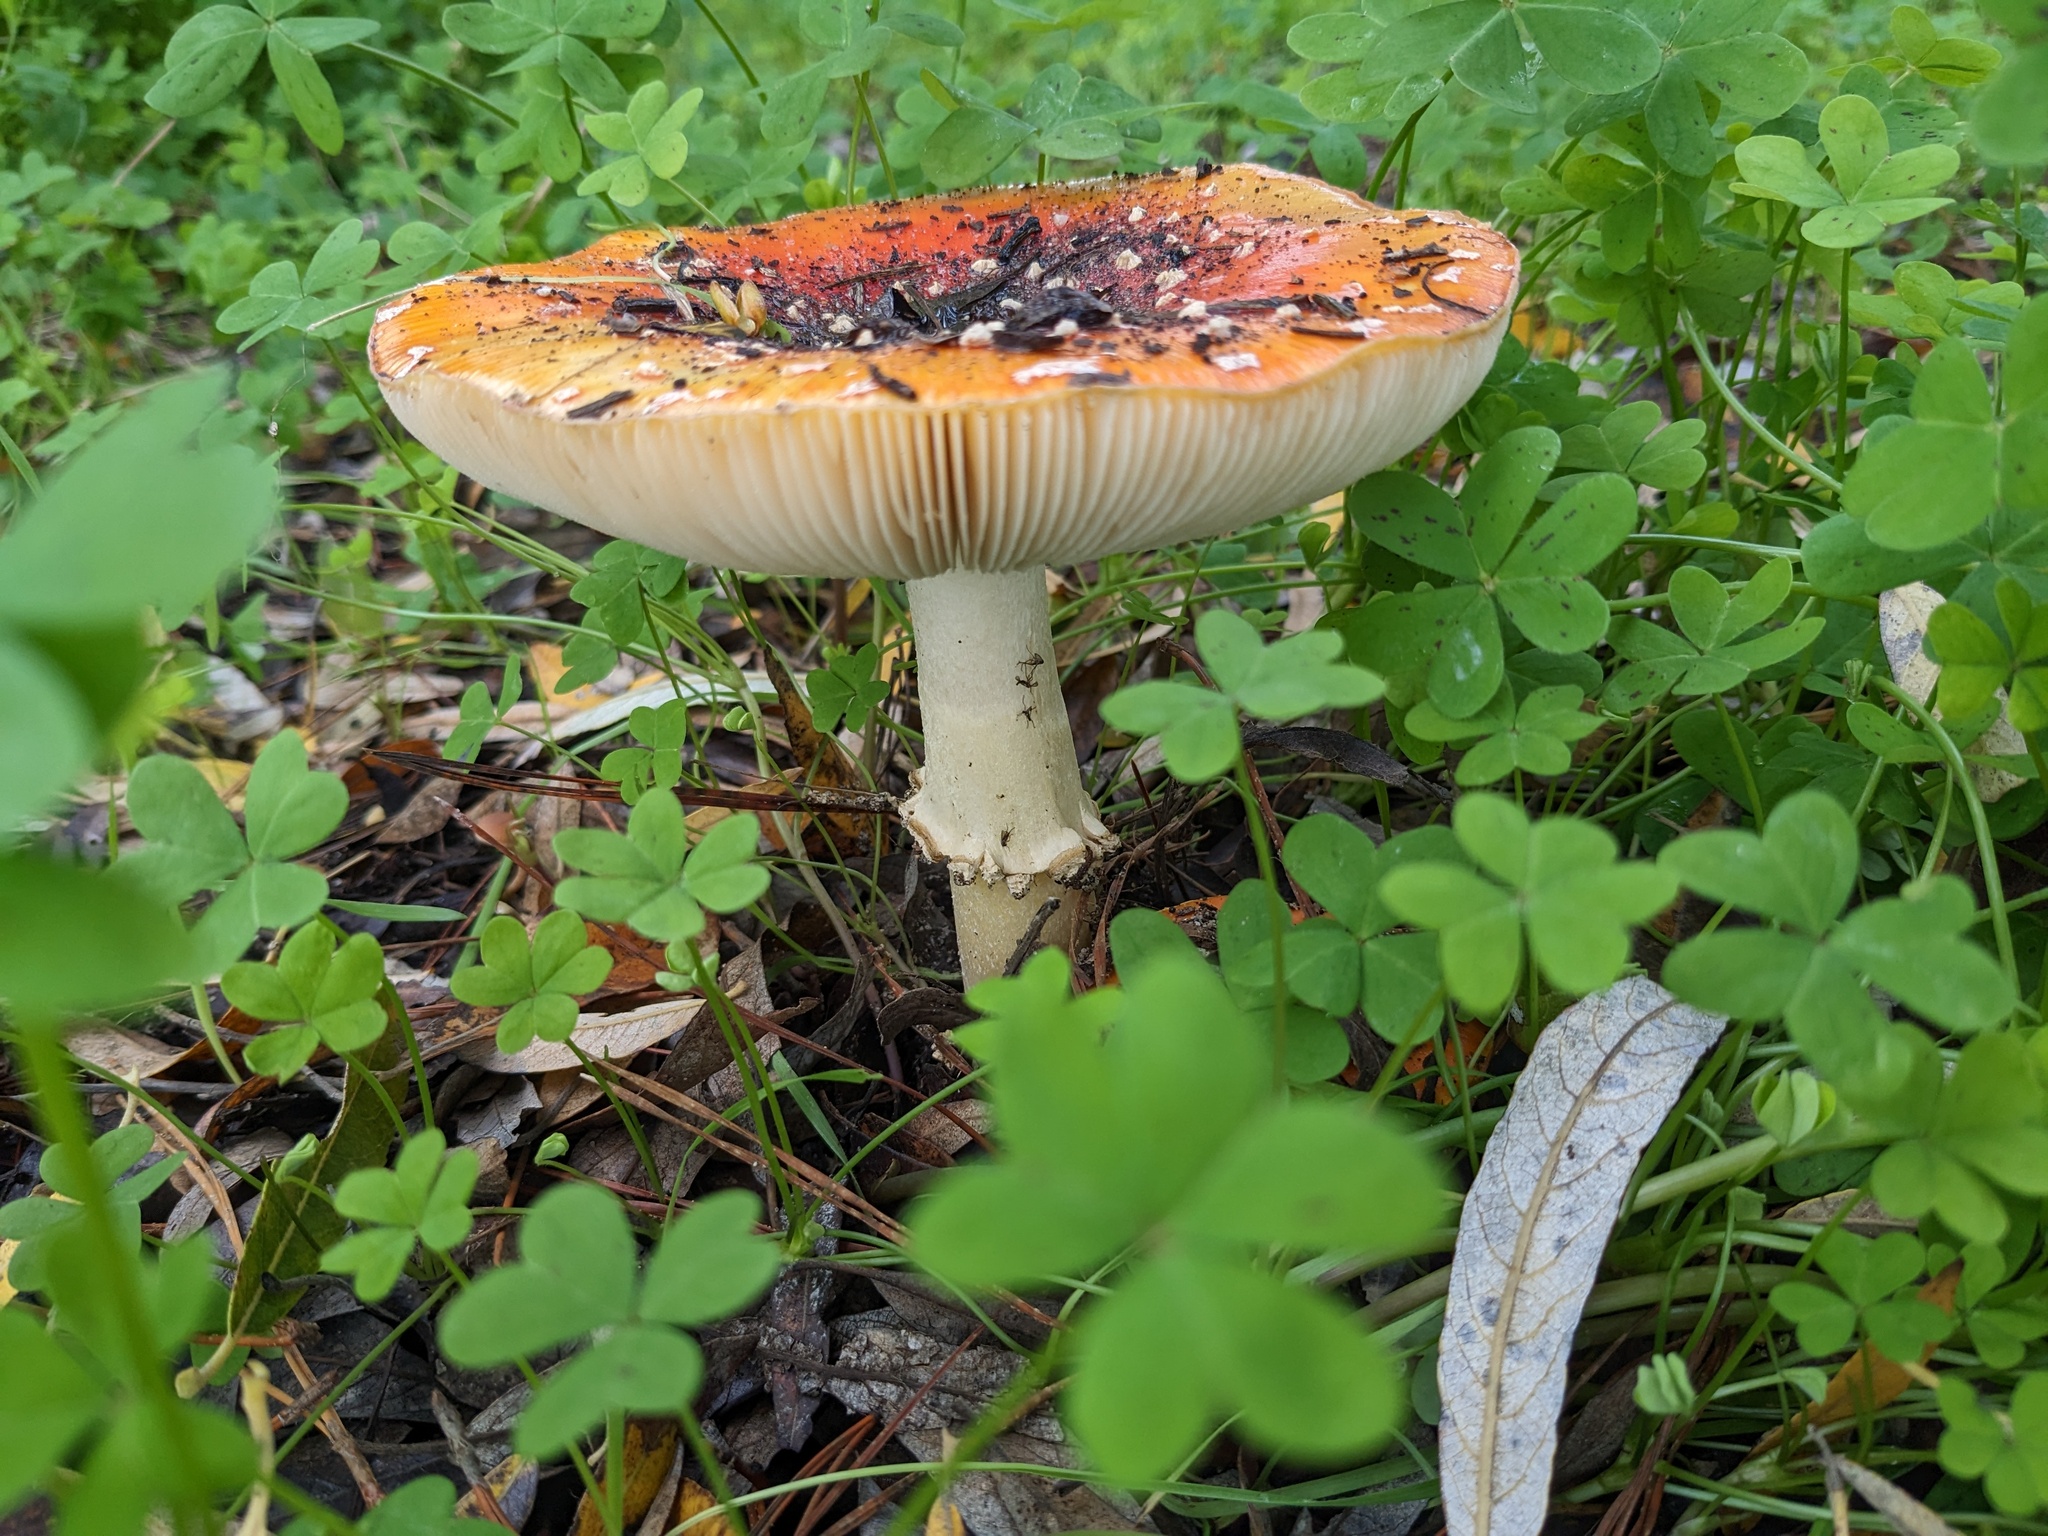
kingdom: Fungi
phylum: Basidiomycota
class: Agaricomycetes
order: Agaricales
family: Amanitaceae
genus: Amanita
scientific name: Amanita muscaria
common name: Fly agaric
